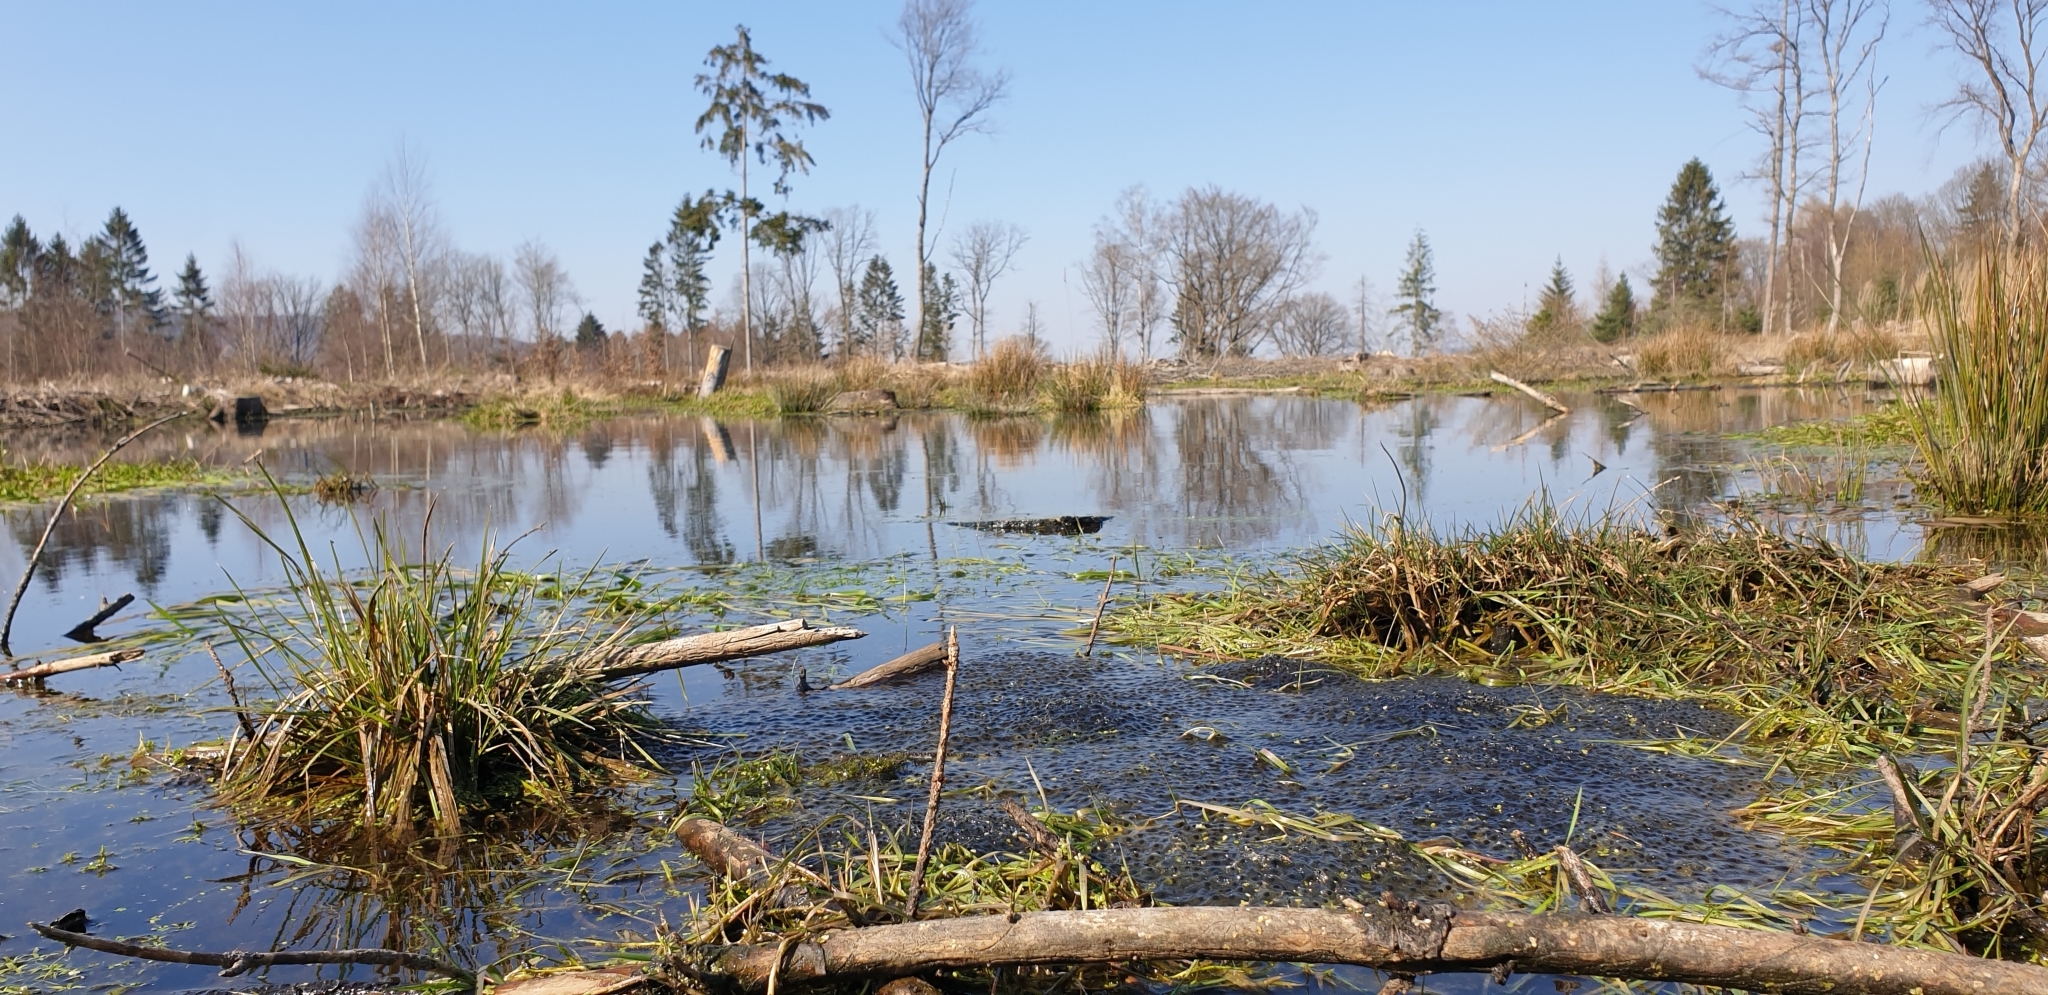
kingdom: Animalia
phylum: Chordata
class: Amphibia
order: Anura
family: Ranidae
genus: Rana
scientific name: Rana temporaria
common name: Common frog
